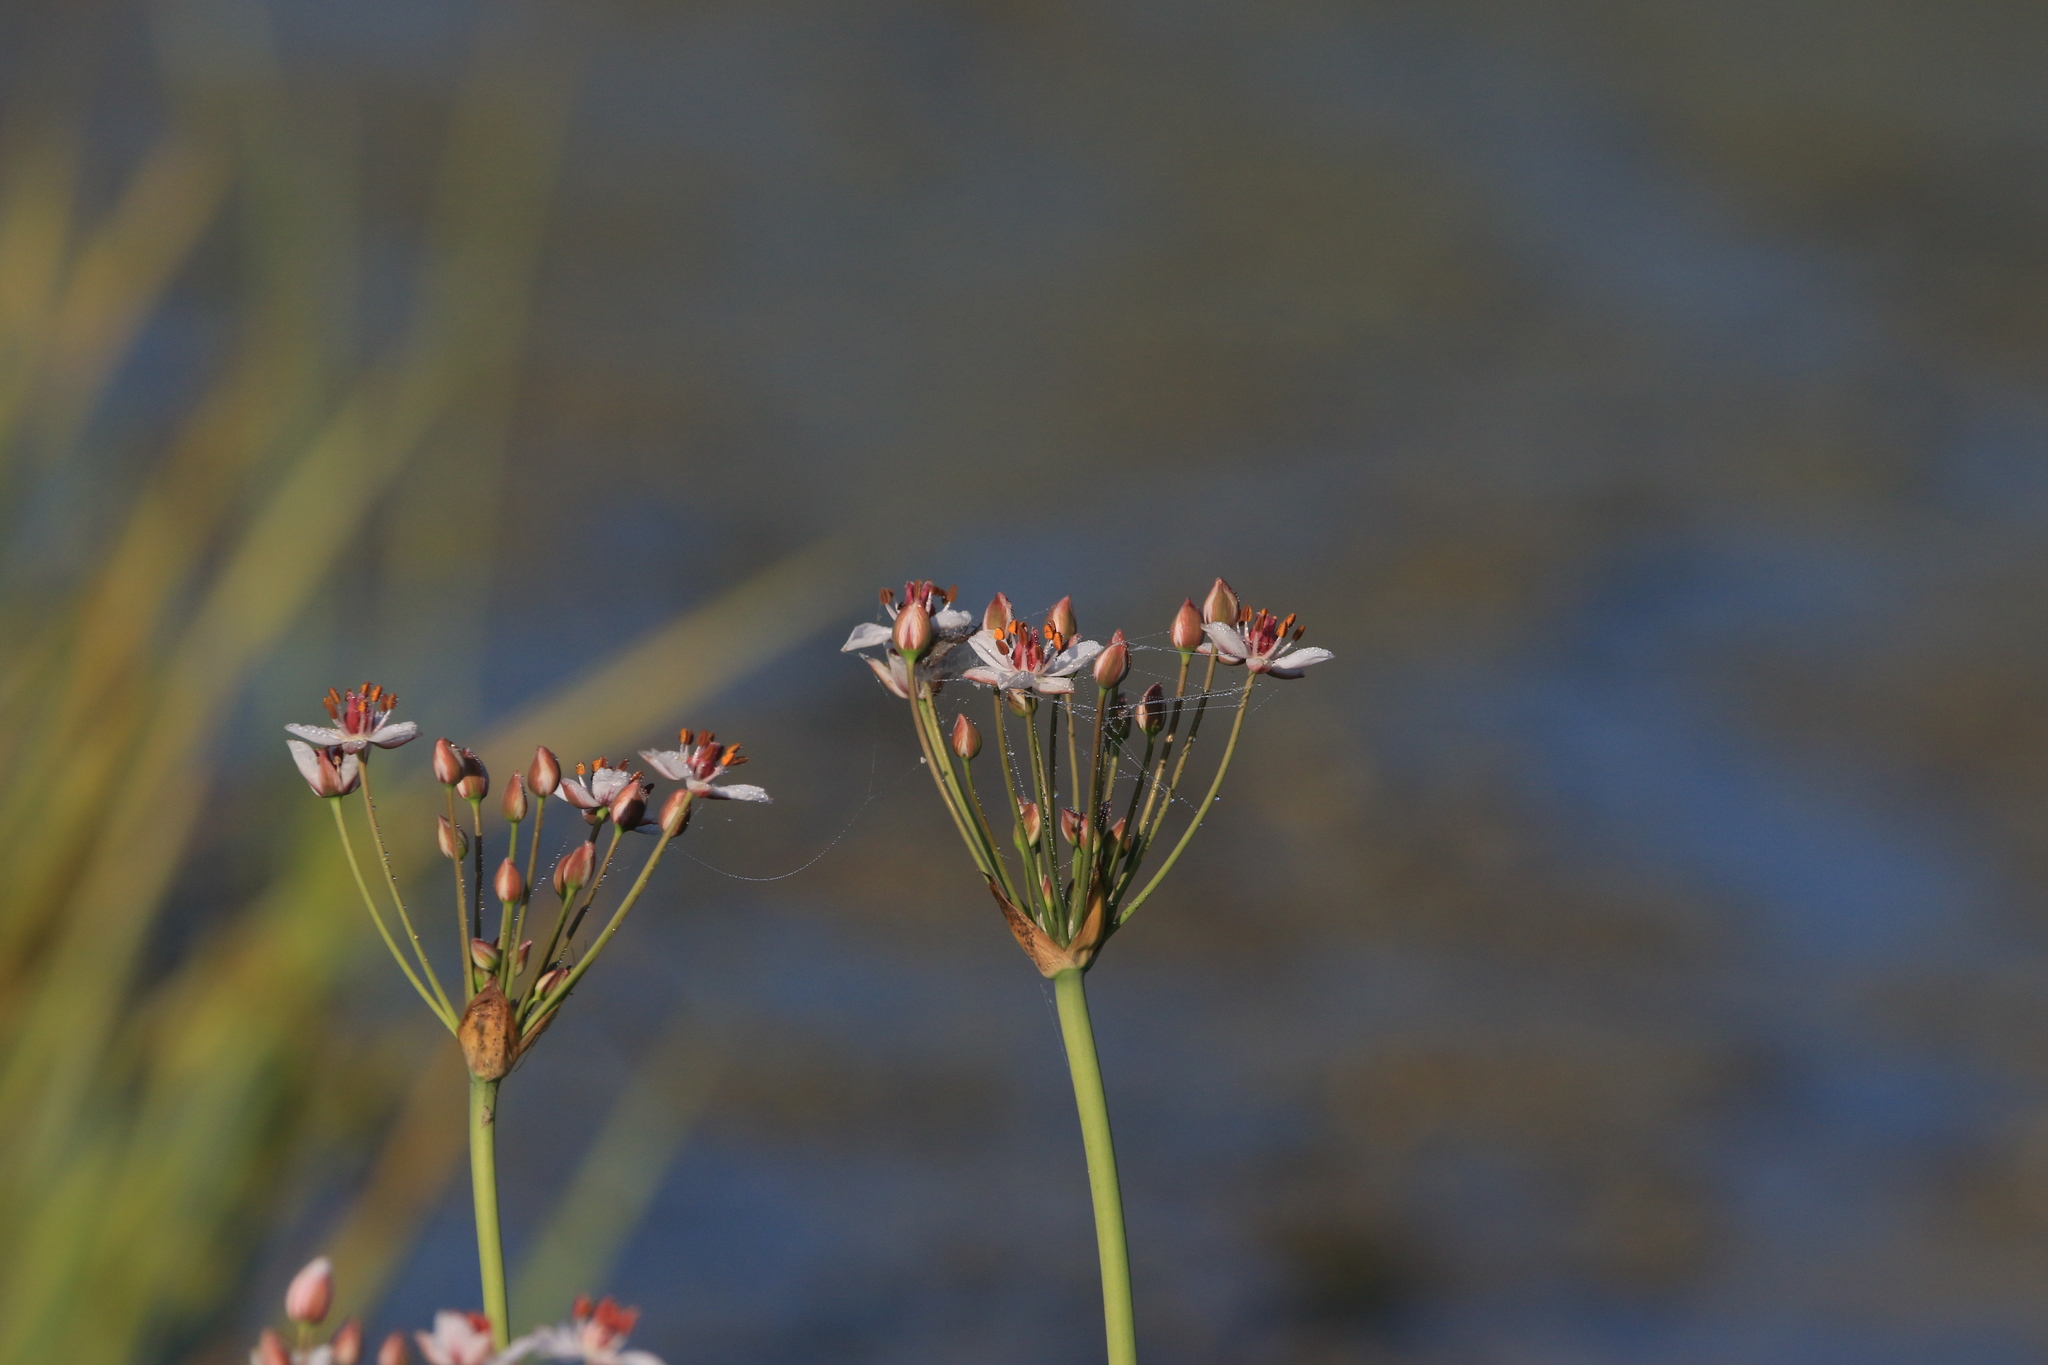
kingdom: Plantae
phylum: Tracheophyta
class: Liliopsida
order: Alismatales
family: Butomaceae
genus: Butomus
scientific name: Butomus umbellatus
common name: Flowering-rush
